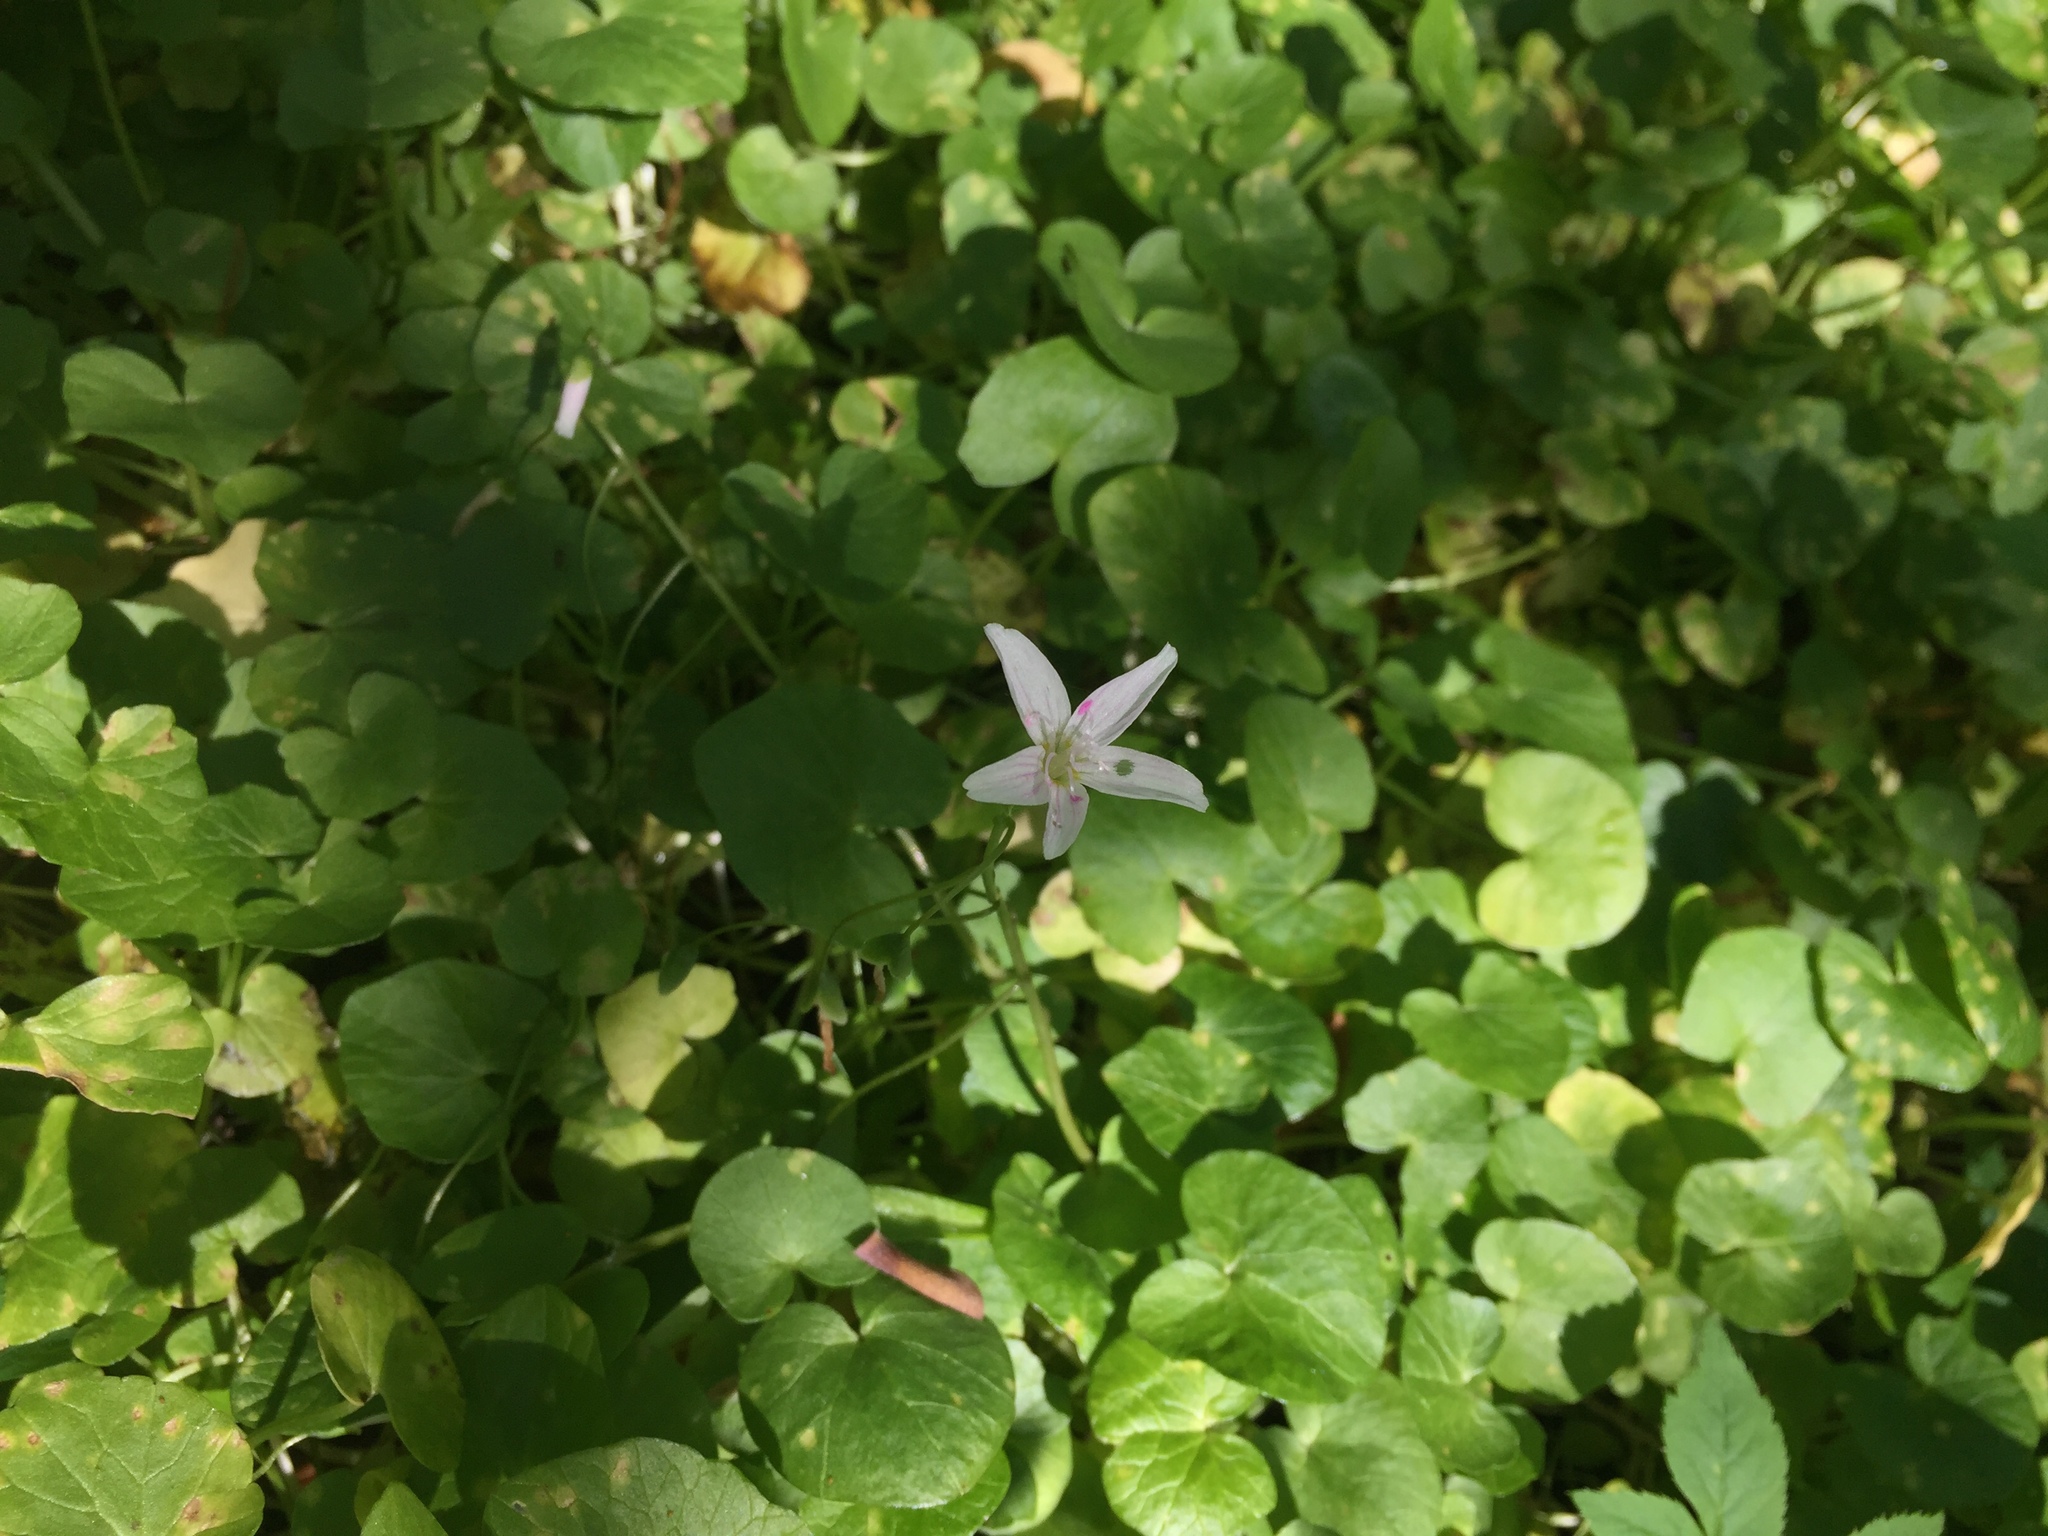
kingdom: Plantae
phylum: Tracheophyta
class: Magnoliopsida
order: Caryophyllales
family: Montiaceae
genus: Claytonia
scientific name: Claytonia virginica
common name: Virginia springbeauty
